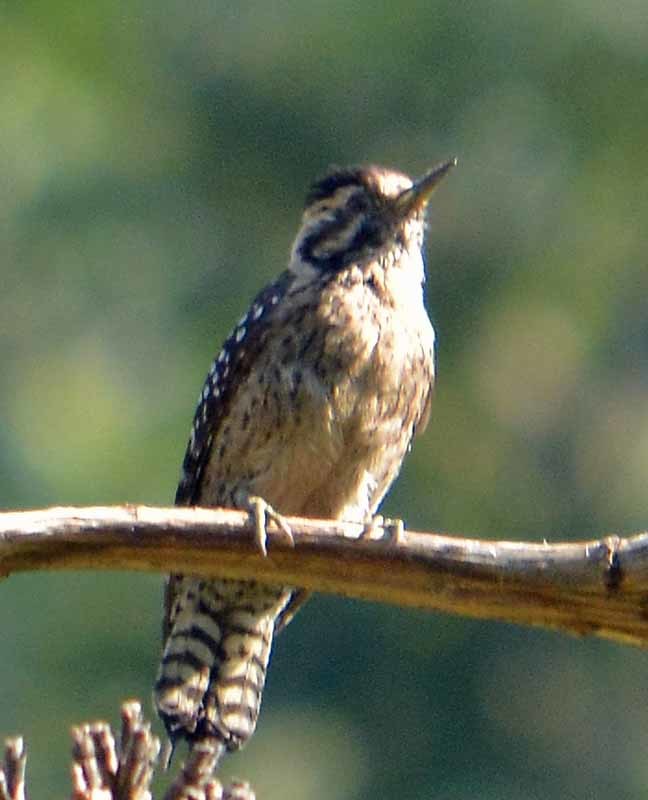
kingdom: Animalia
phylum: Chordata
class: Aves
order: Piciformes
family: Picidae
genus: Dryobates
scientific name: Dryobates scalaris
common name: Ladder-backed woodpecker
